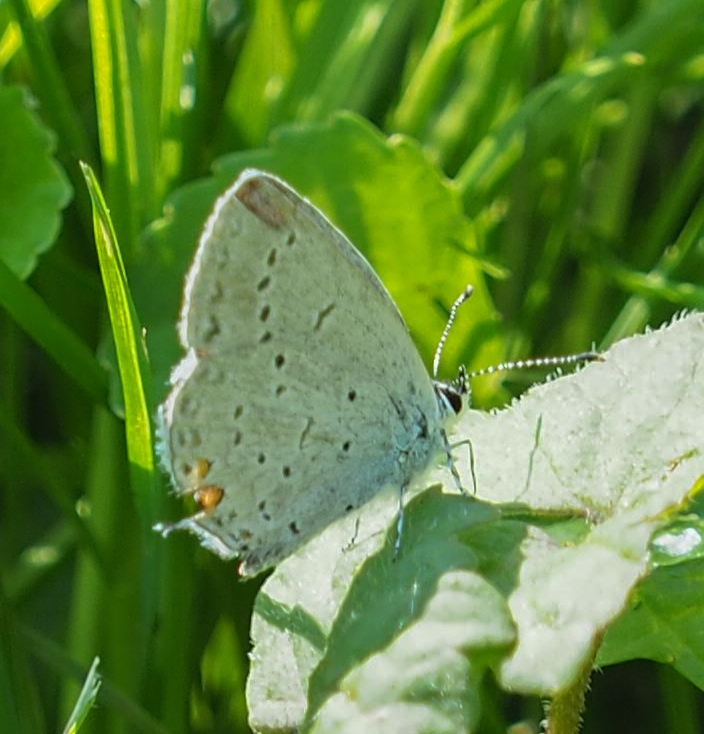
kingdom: Animalia
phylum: Arthropoda
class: Insecta
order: Lepidoptera
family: Lycaenidae
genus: Elkalyce
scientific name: Elkalyce comyntas
